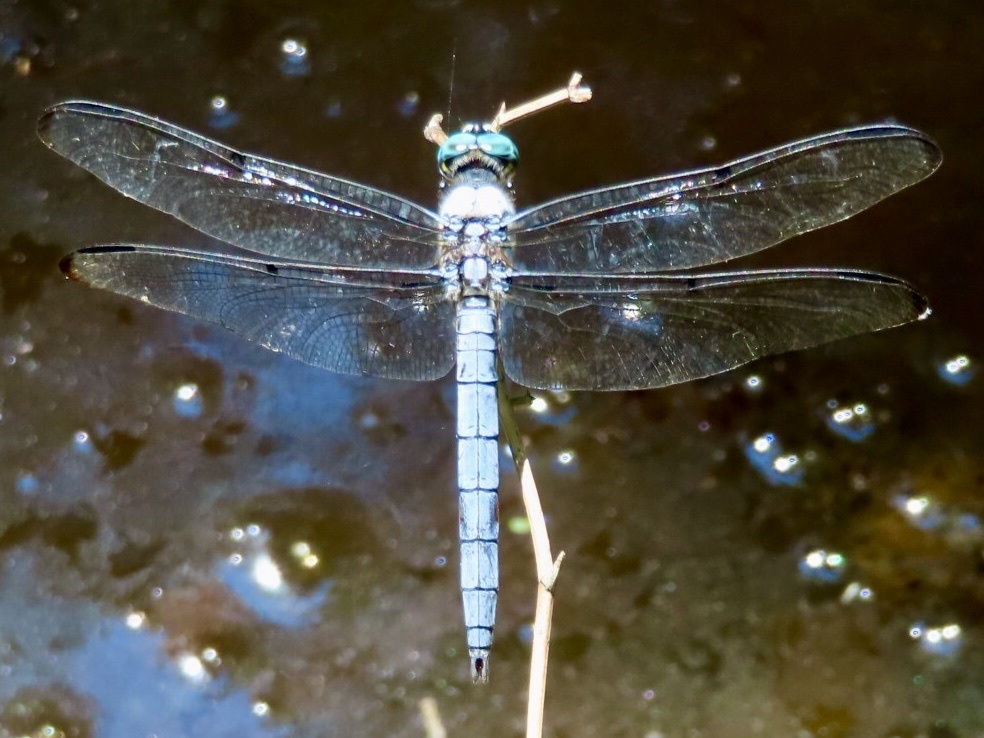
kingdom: Animalia
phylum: Arthropoda
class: Insecta
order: Odonata
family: Libellulidae
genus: Libellula
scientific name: Libellula vibrans
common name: Great blue skimmer
